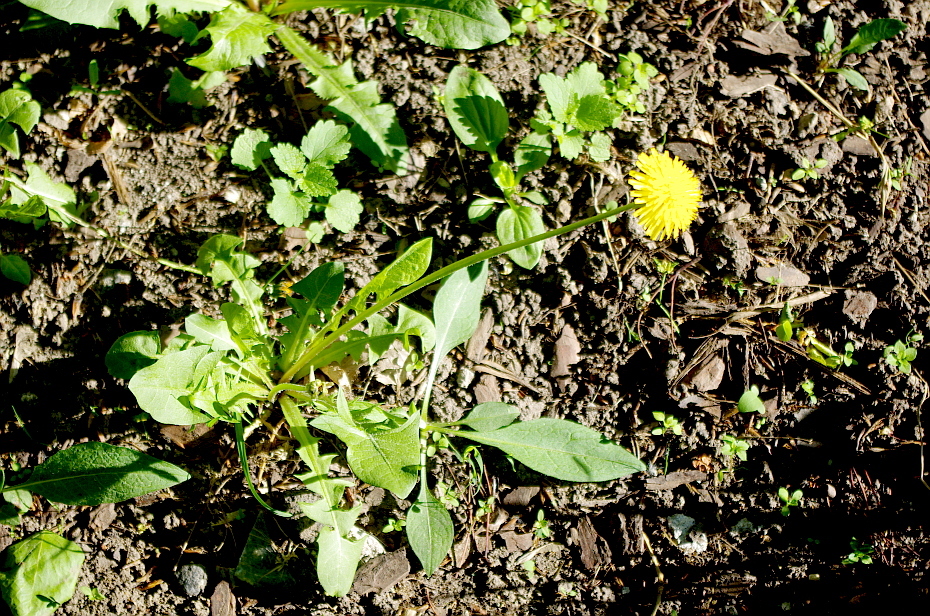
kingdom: Plantae
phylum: Tracheophyta
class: Magnoliopsida
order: Asterales
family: Asteraceae
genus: Taraxacum
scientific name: Taraxacum officinale
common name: Common dandelion
